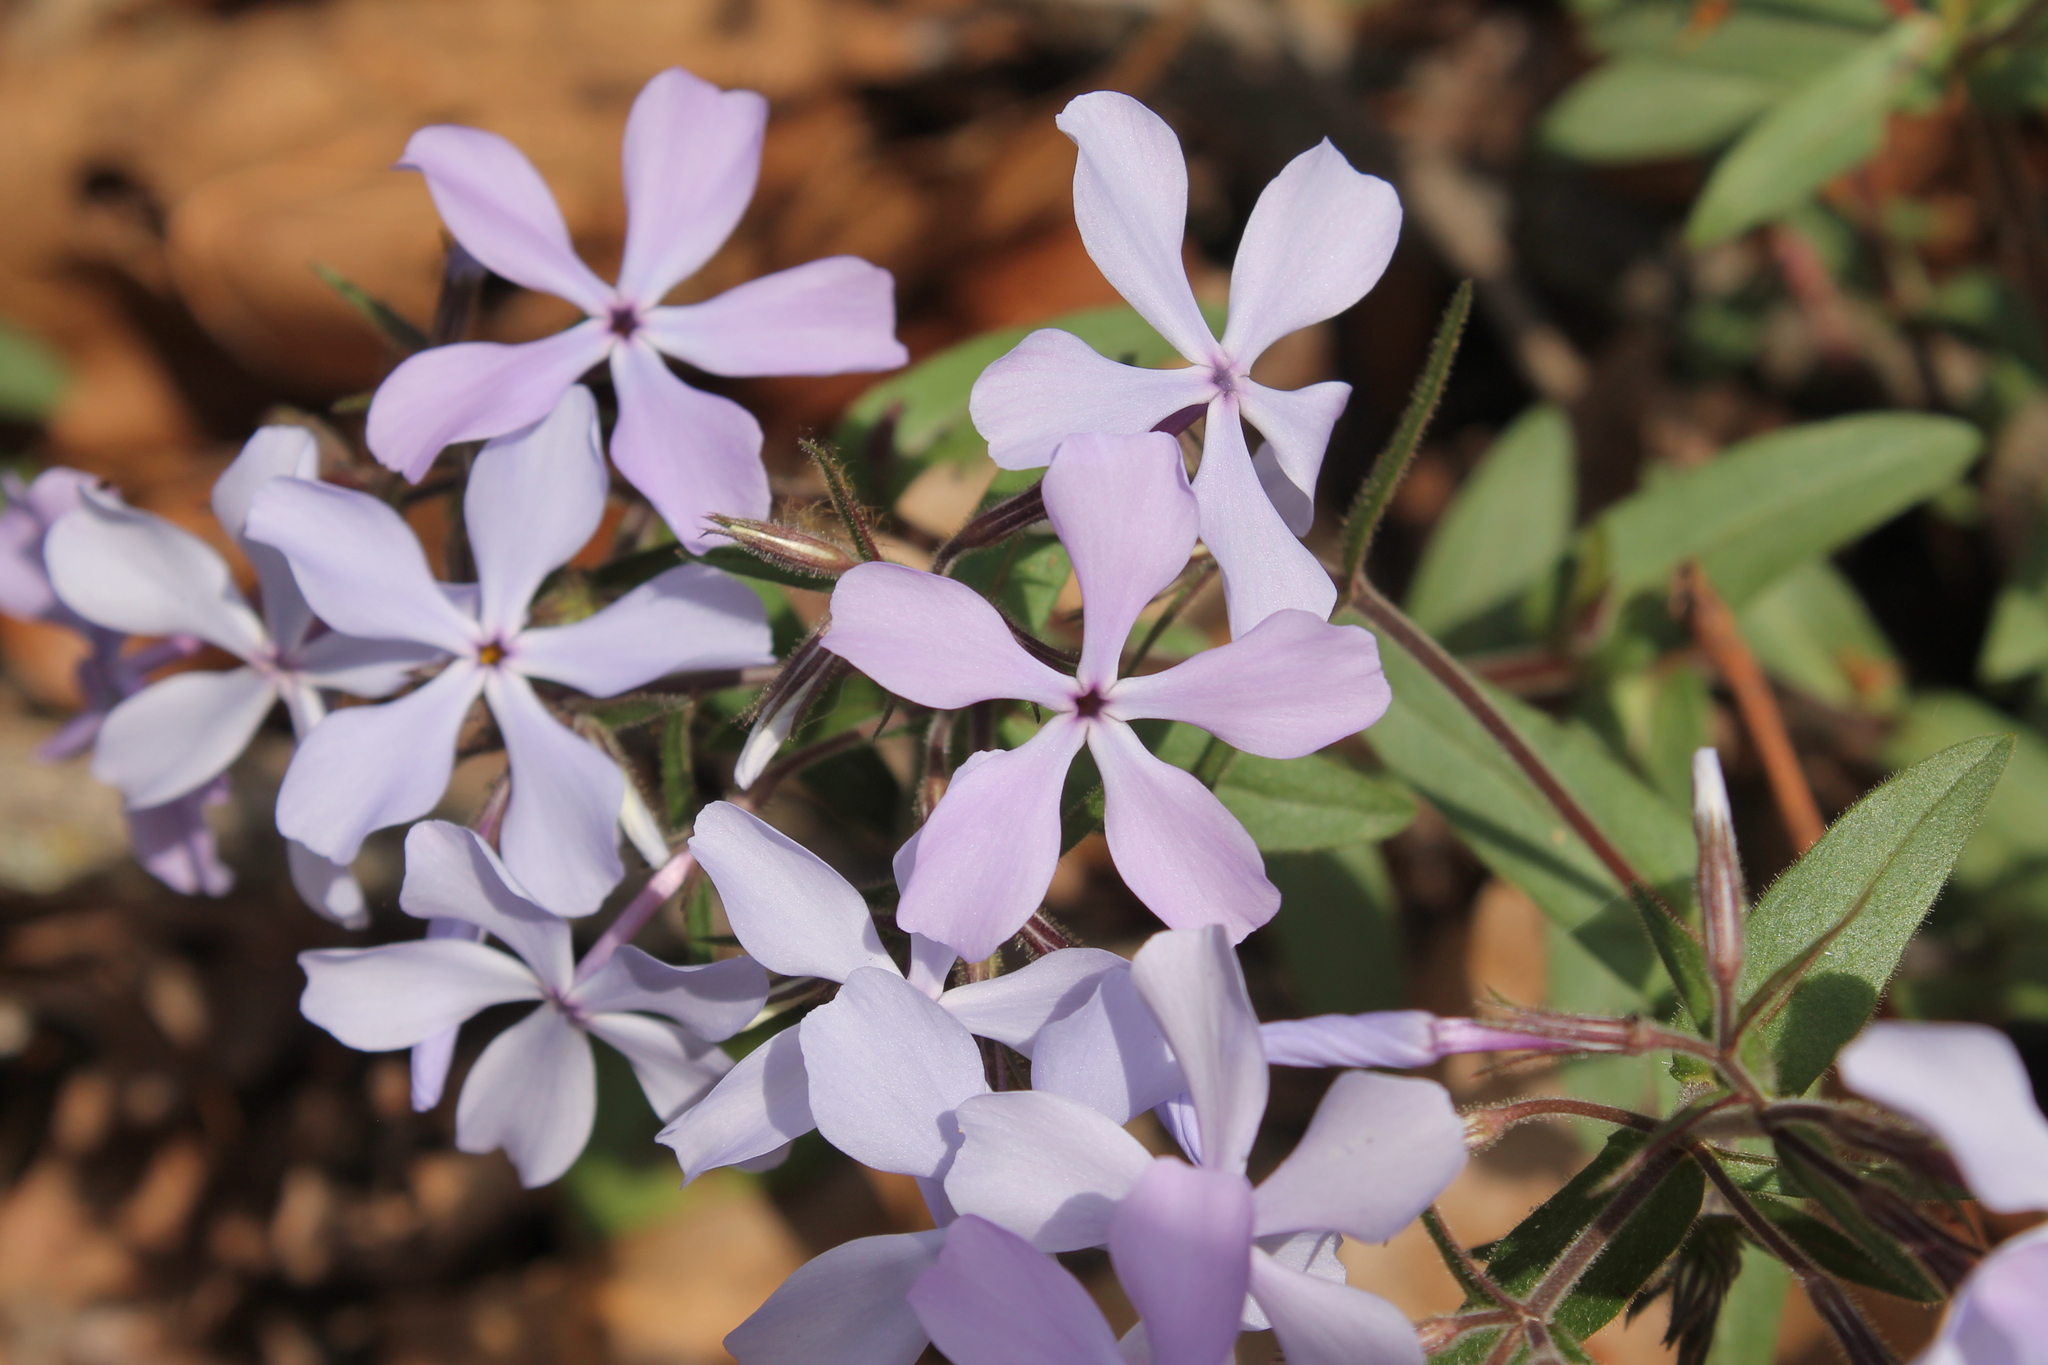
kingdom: Plantae
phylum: Tracheophyta
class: Magnoliopsida
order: Ericales
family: Polemoniaceae
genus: Phlox
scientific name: Phlox divaricata
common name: Blue phlox
